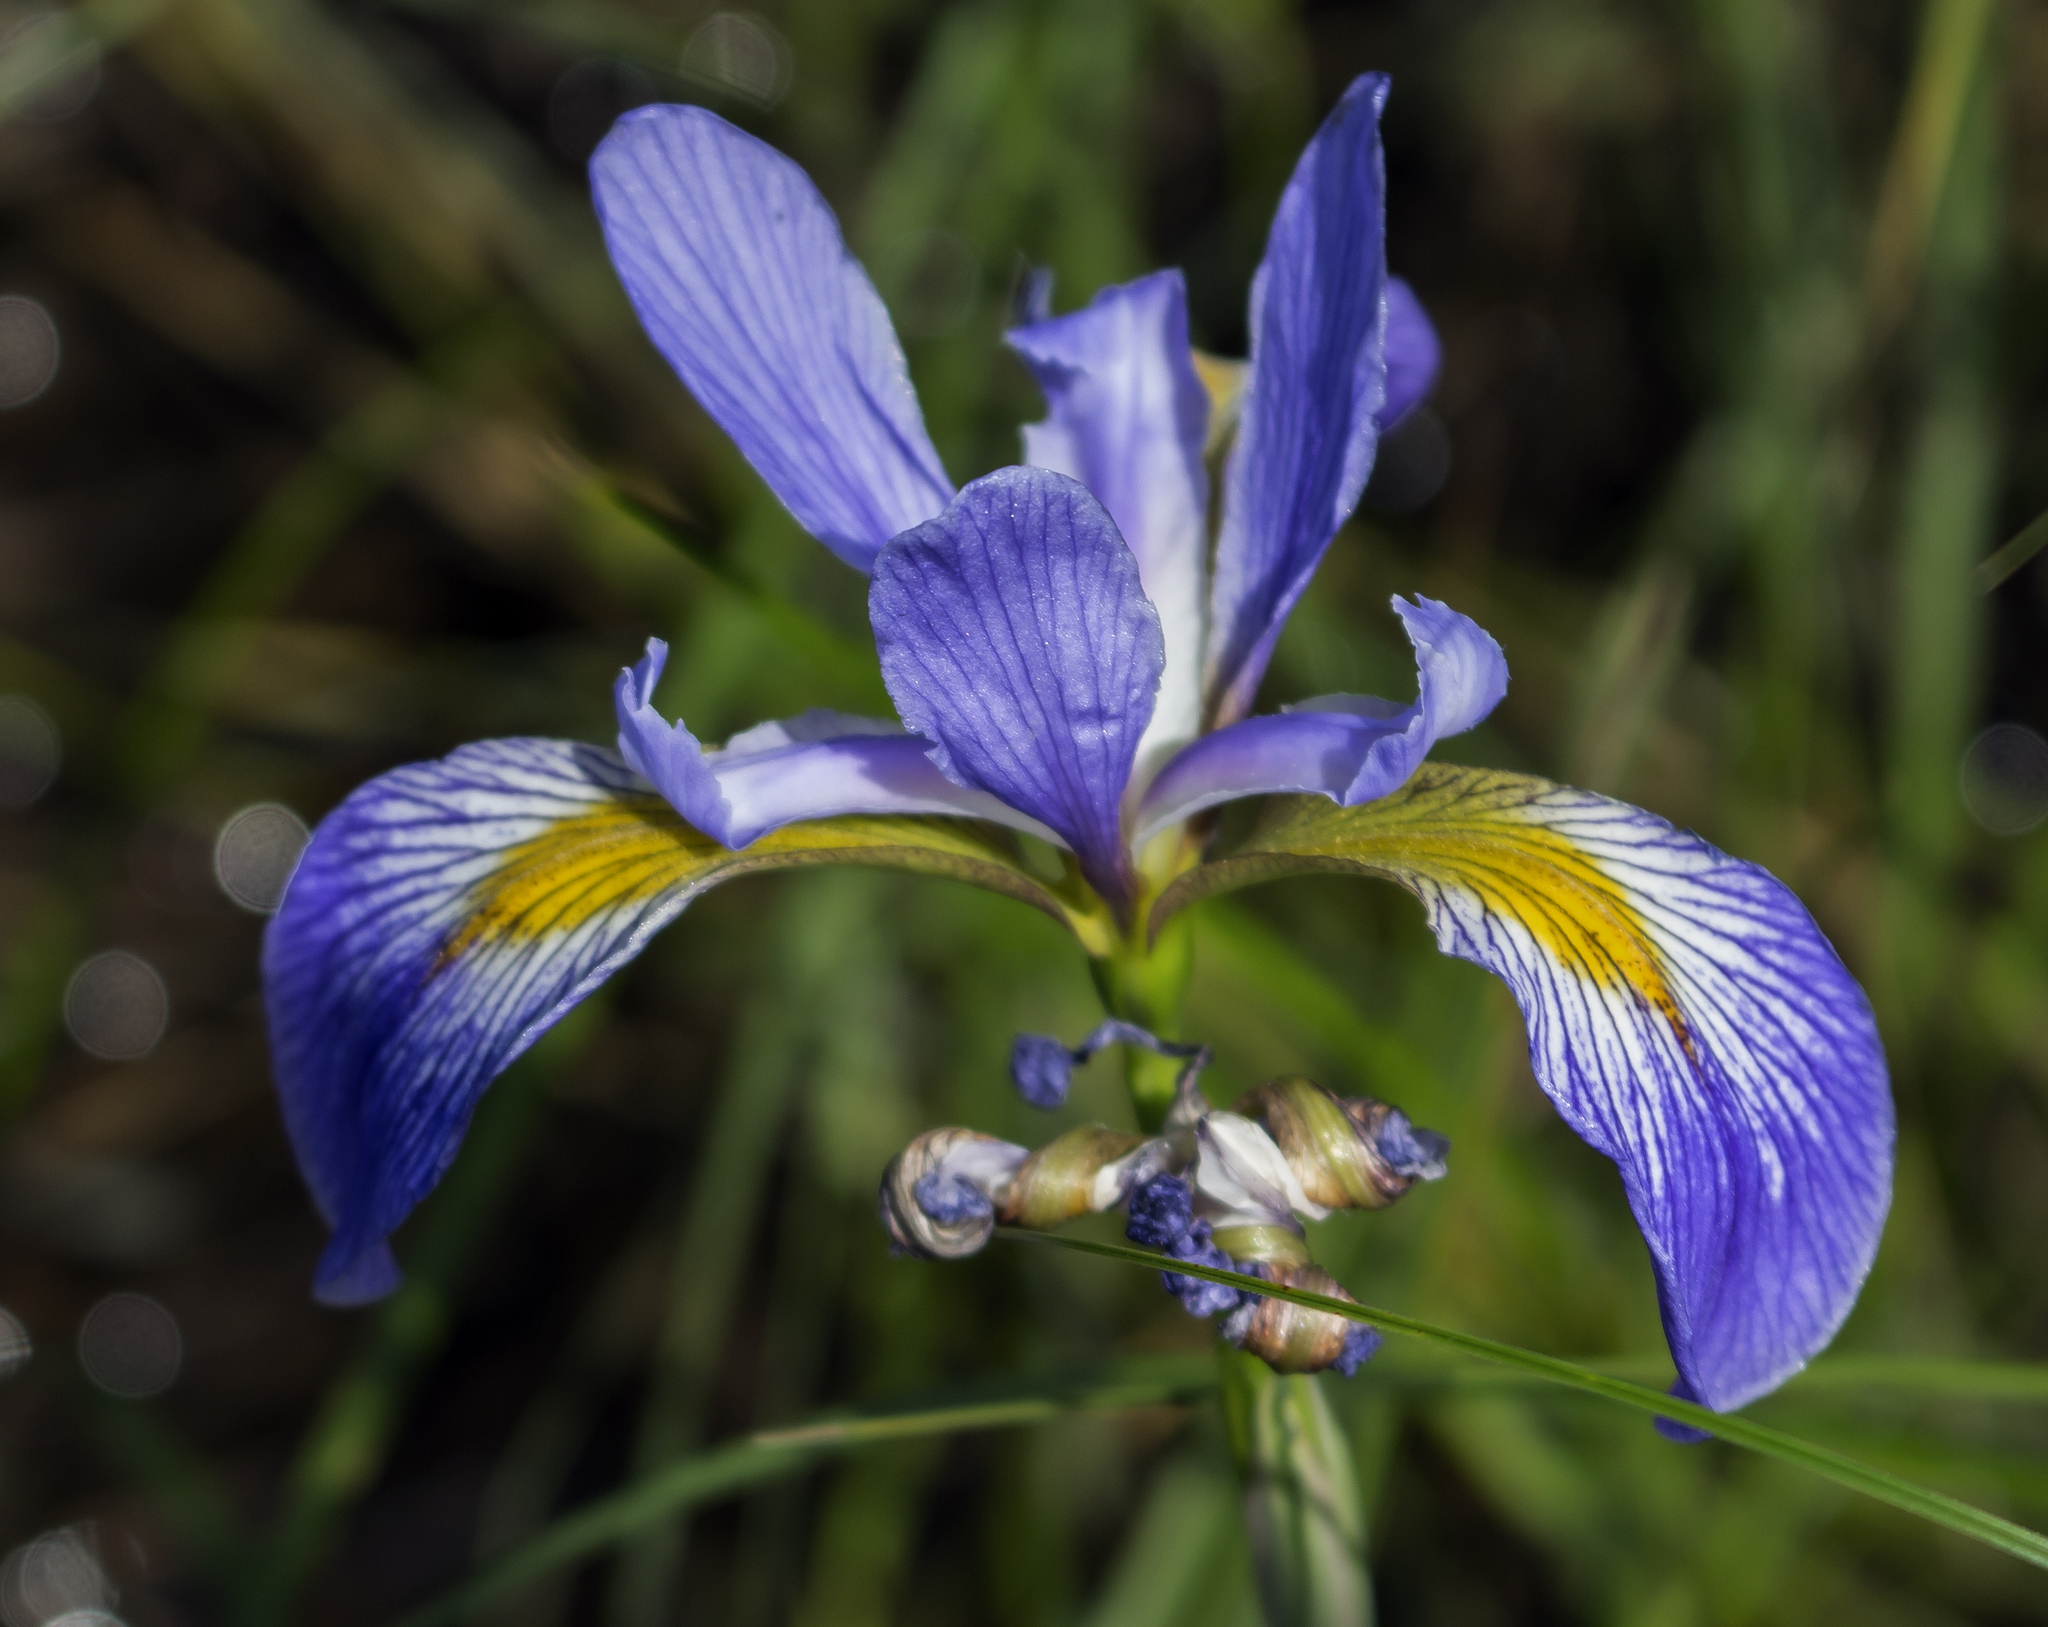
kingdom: Plantae
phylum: Tracheophyta
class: Liliopsida
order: Asparagales
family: Iridaceae
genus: Iris
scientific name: Iris virginica
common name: Southern blue flag
